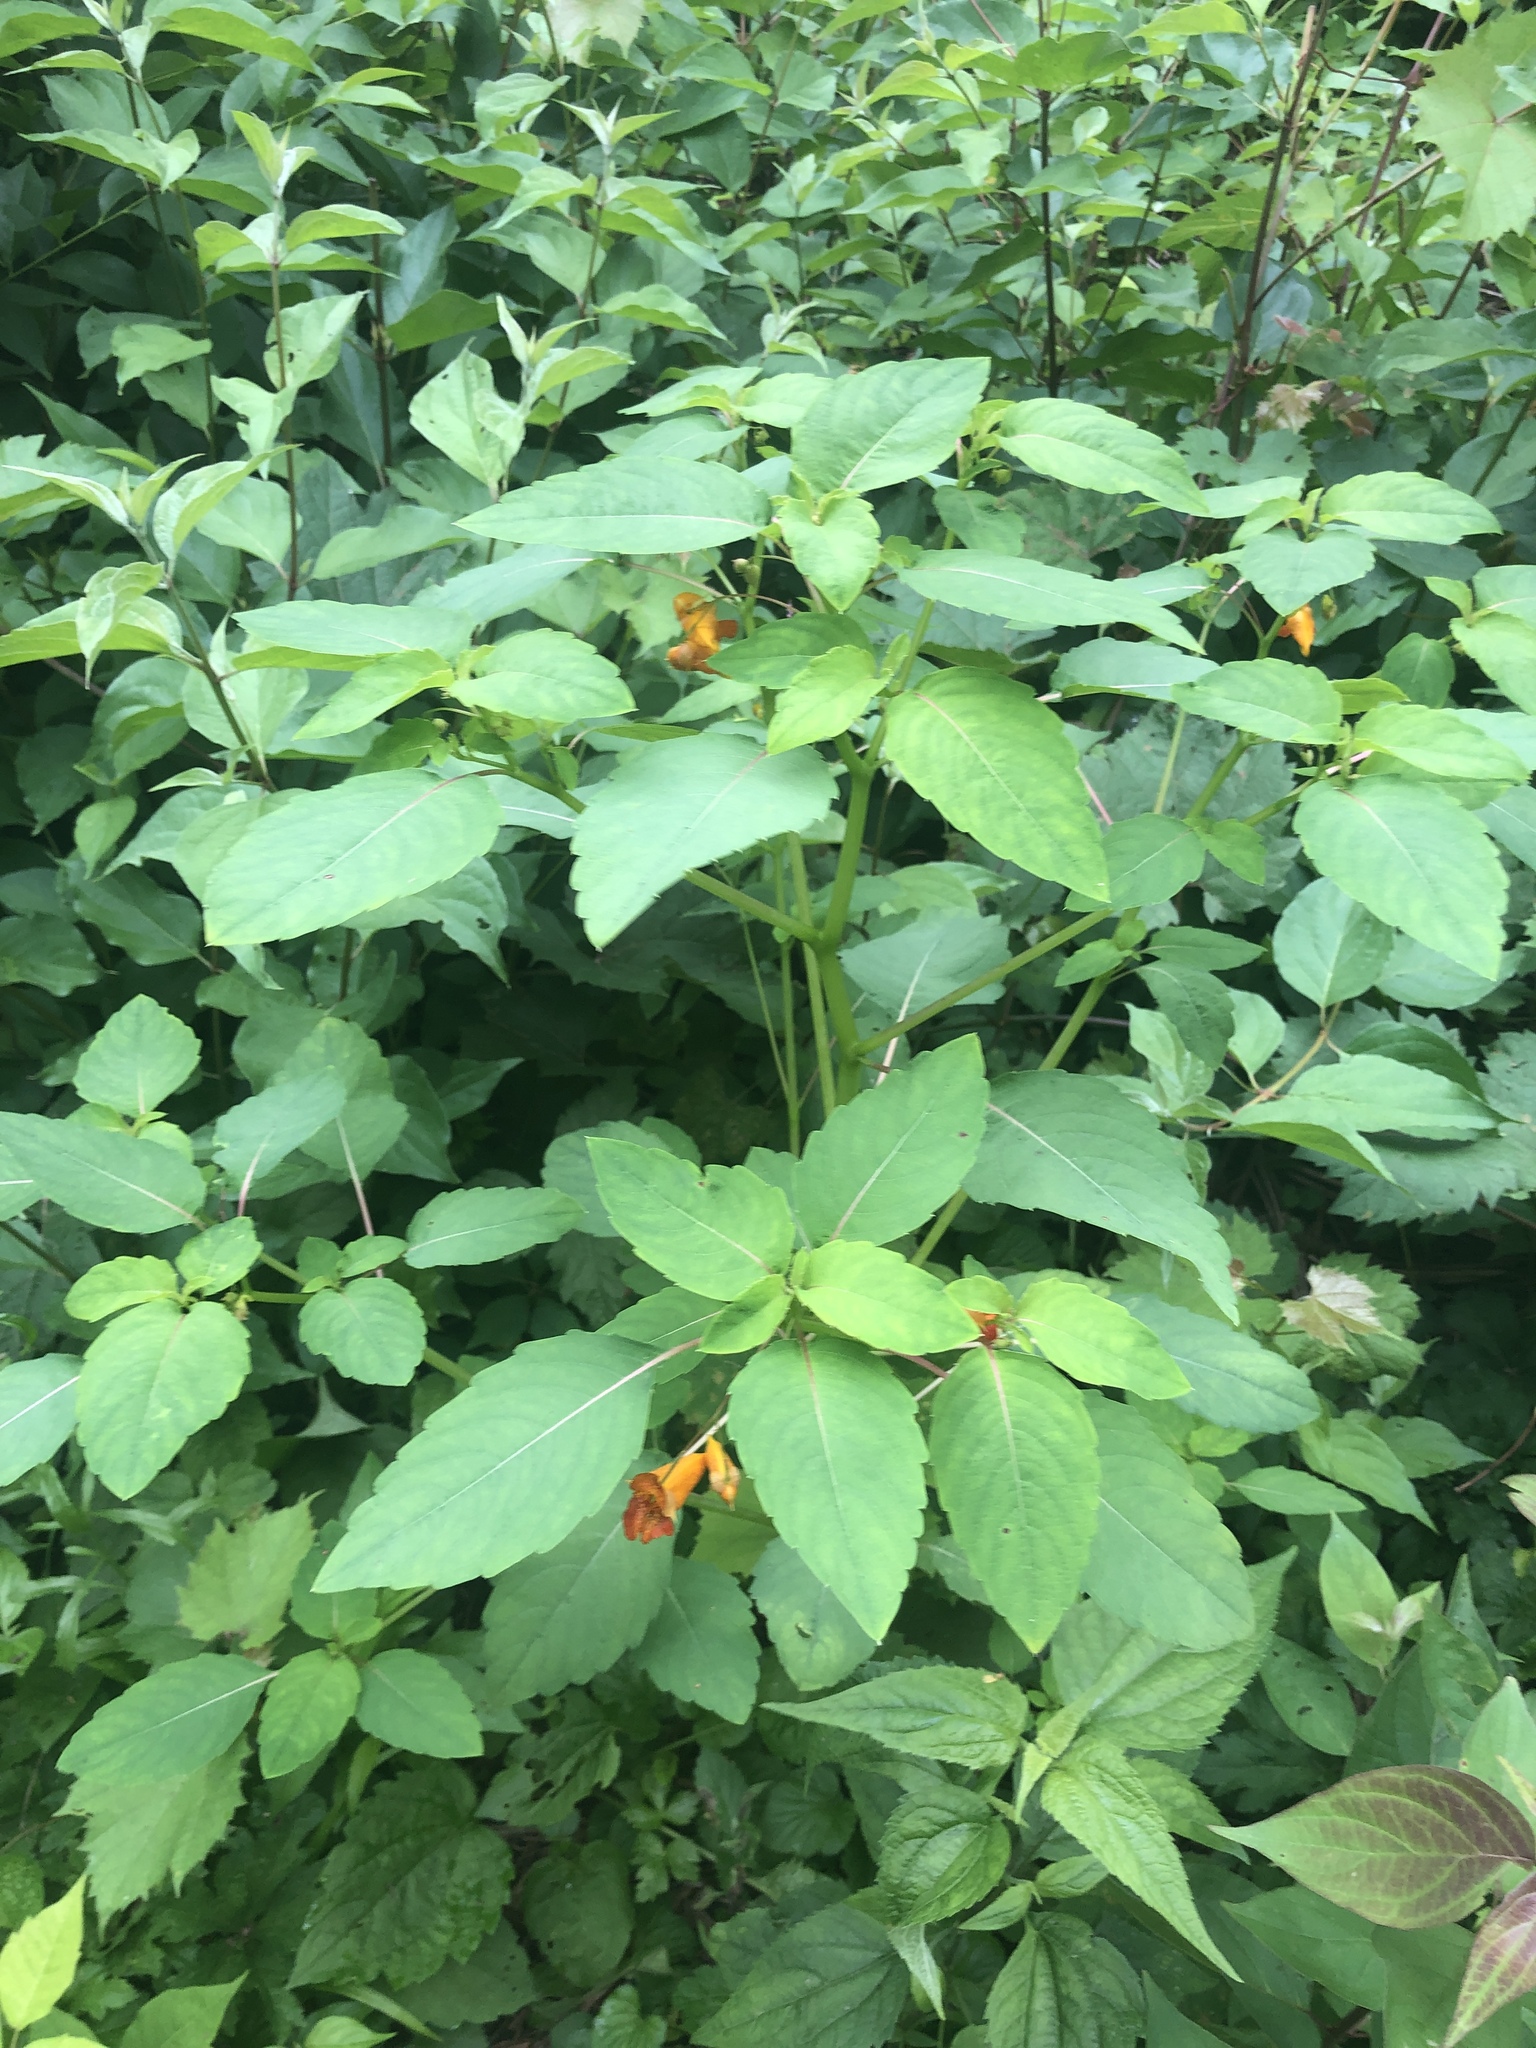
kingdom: Plantae
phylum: Tracheophyta
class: Magnoliopsida
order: Ericales
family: Balsaminaceae
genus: Impatiens
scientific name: Impatiens capensis
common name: Orange balsam
